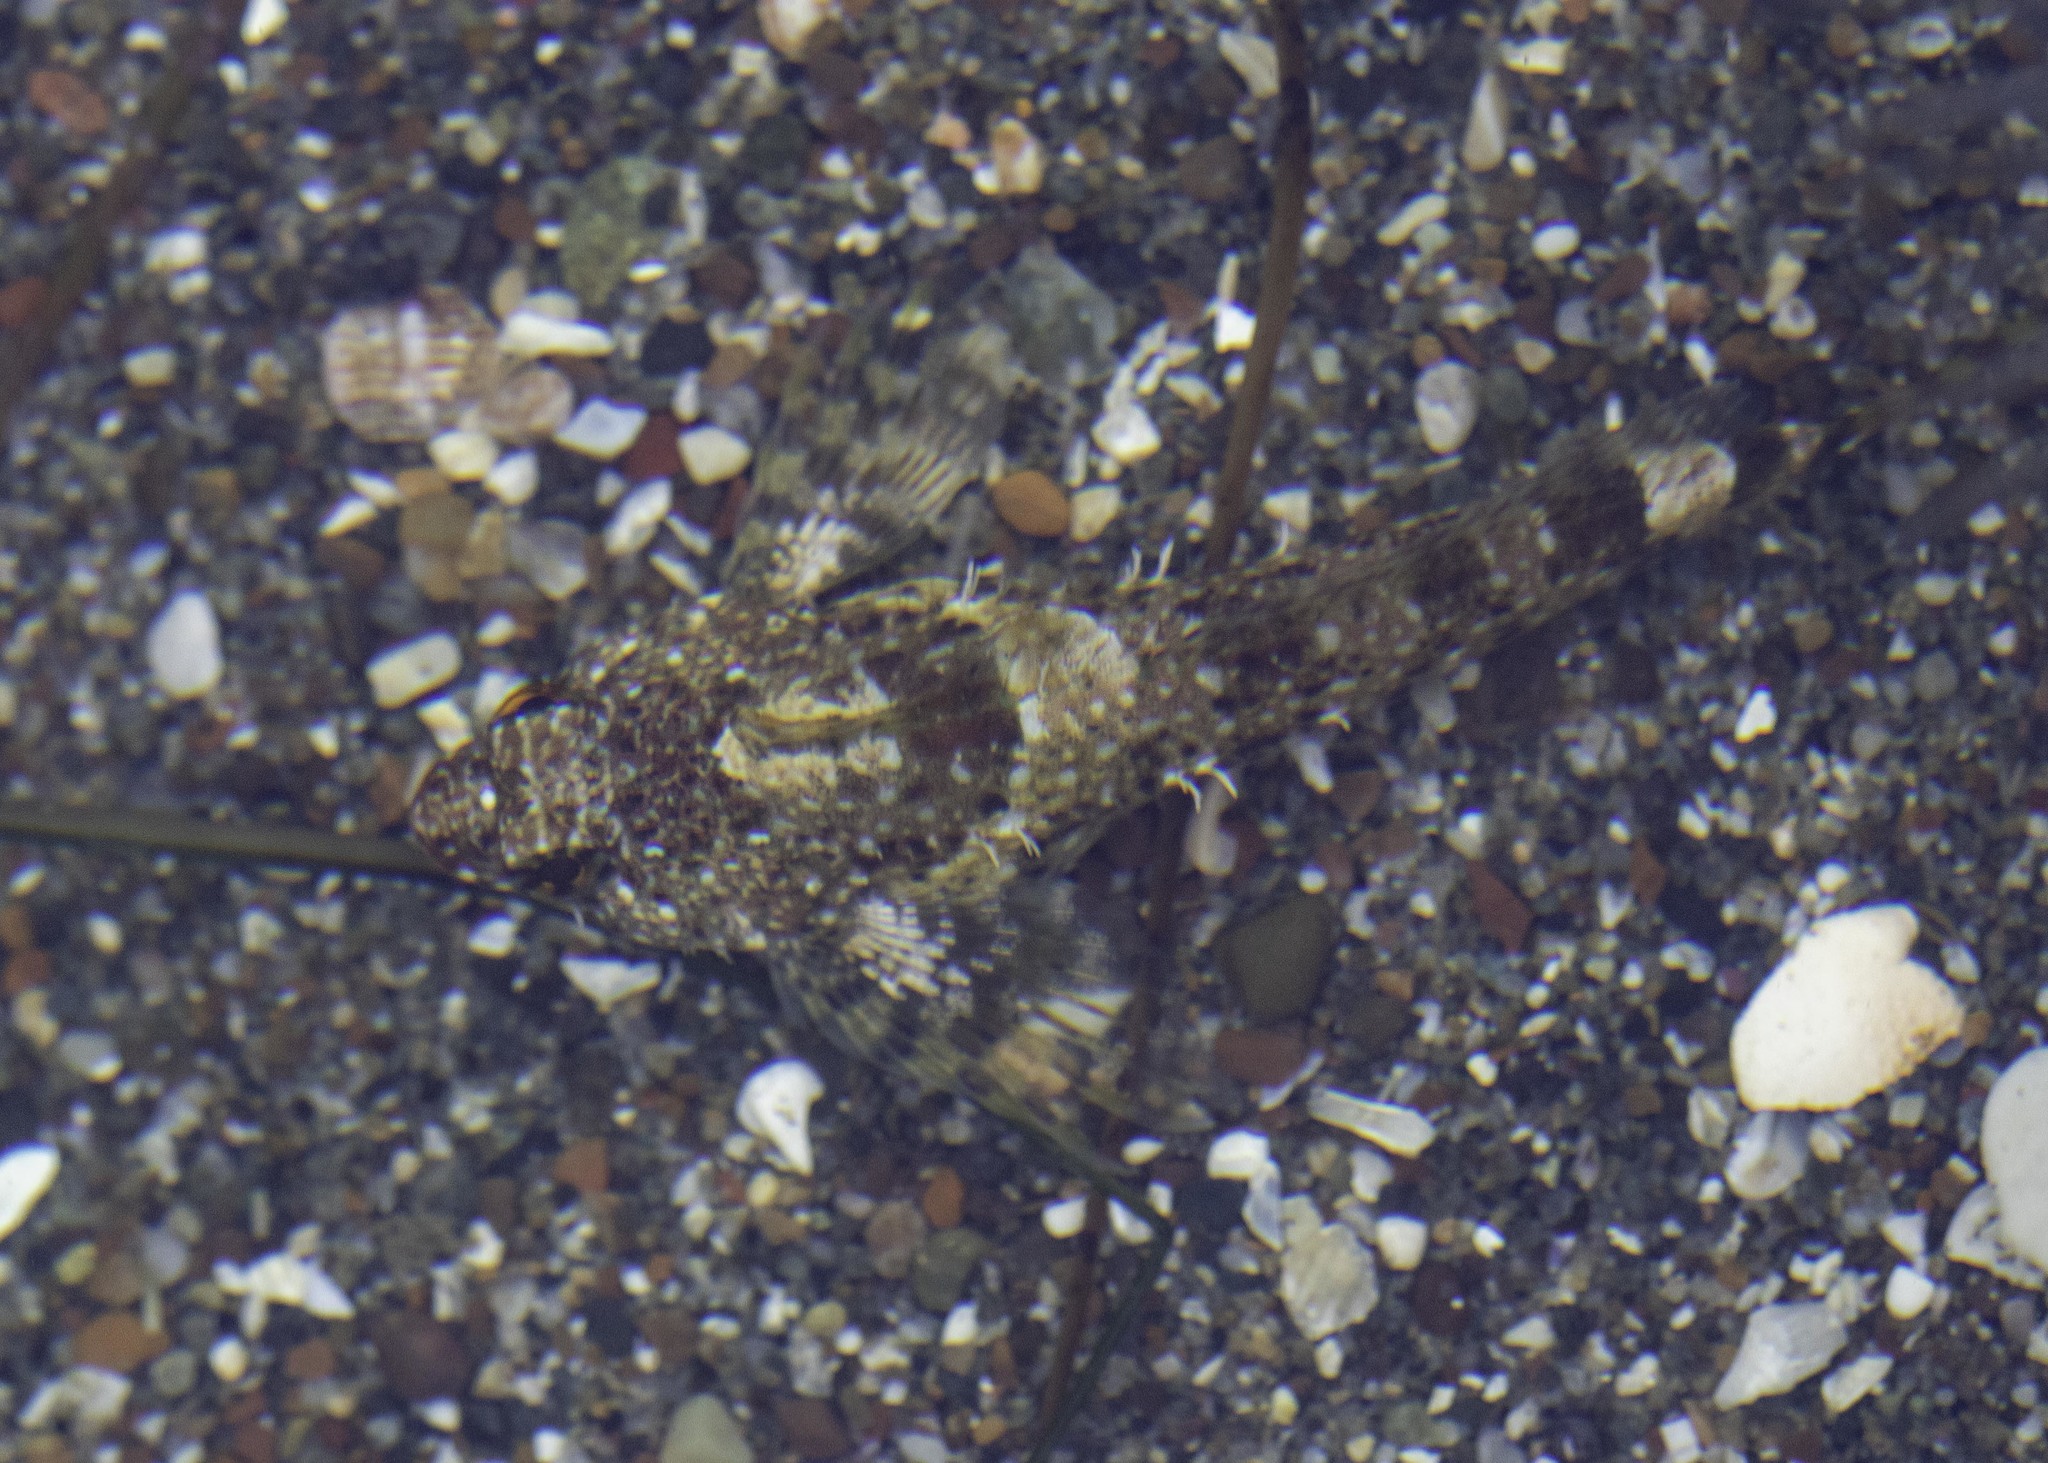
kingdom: Animalia
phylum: Chordata
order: Scorpaeniformes
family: Cottidae
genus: Clinocottus
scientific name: Clinocottus analis
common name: Woolly sculpin
